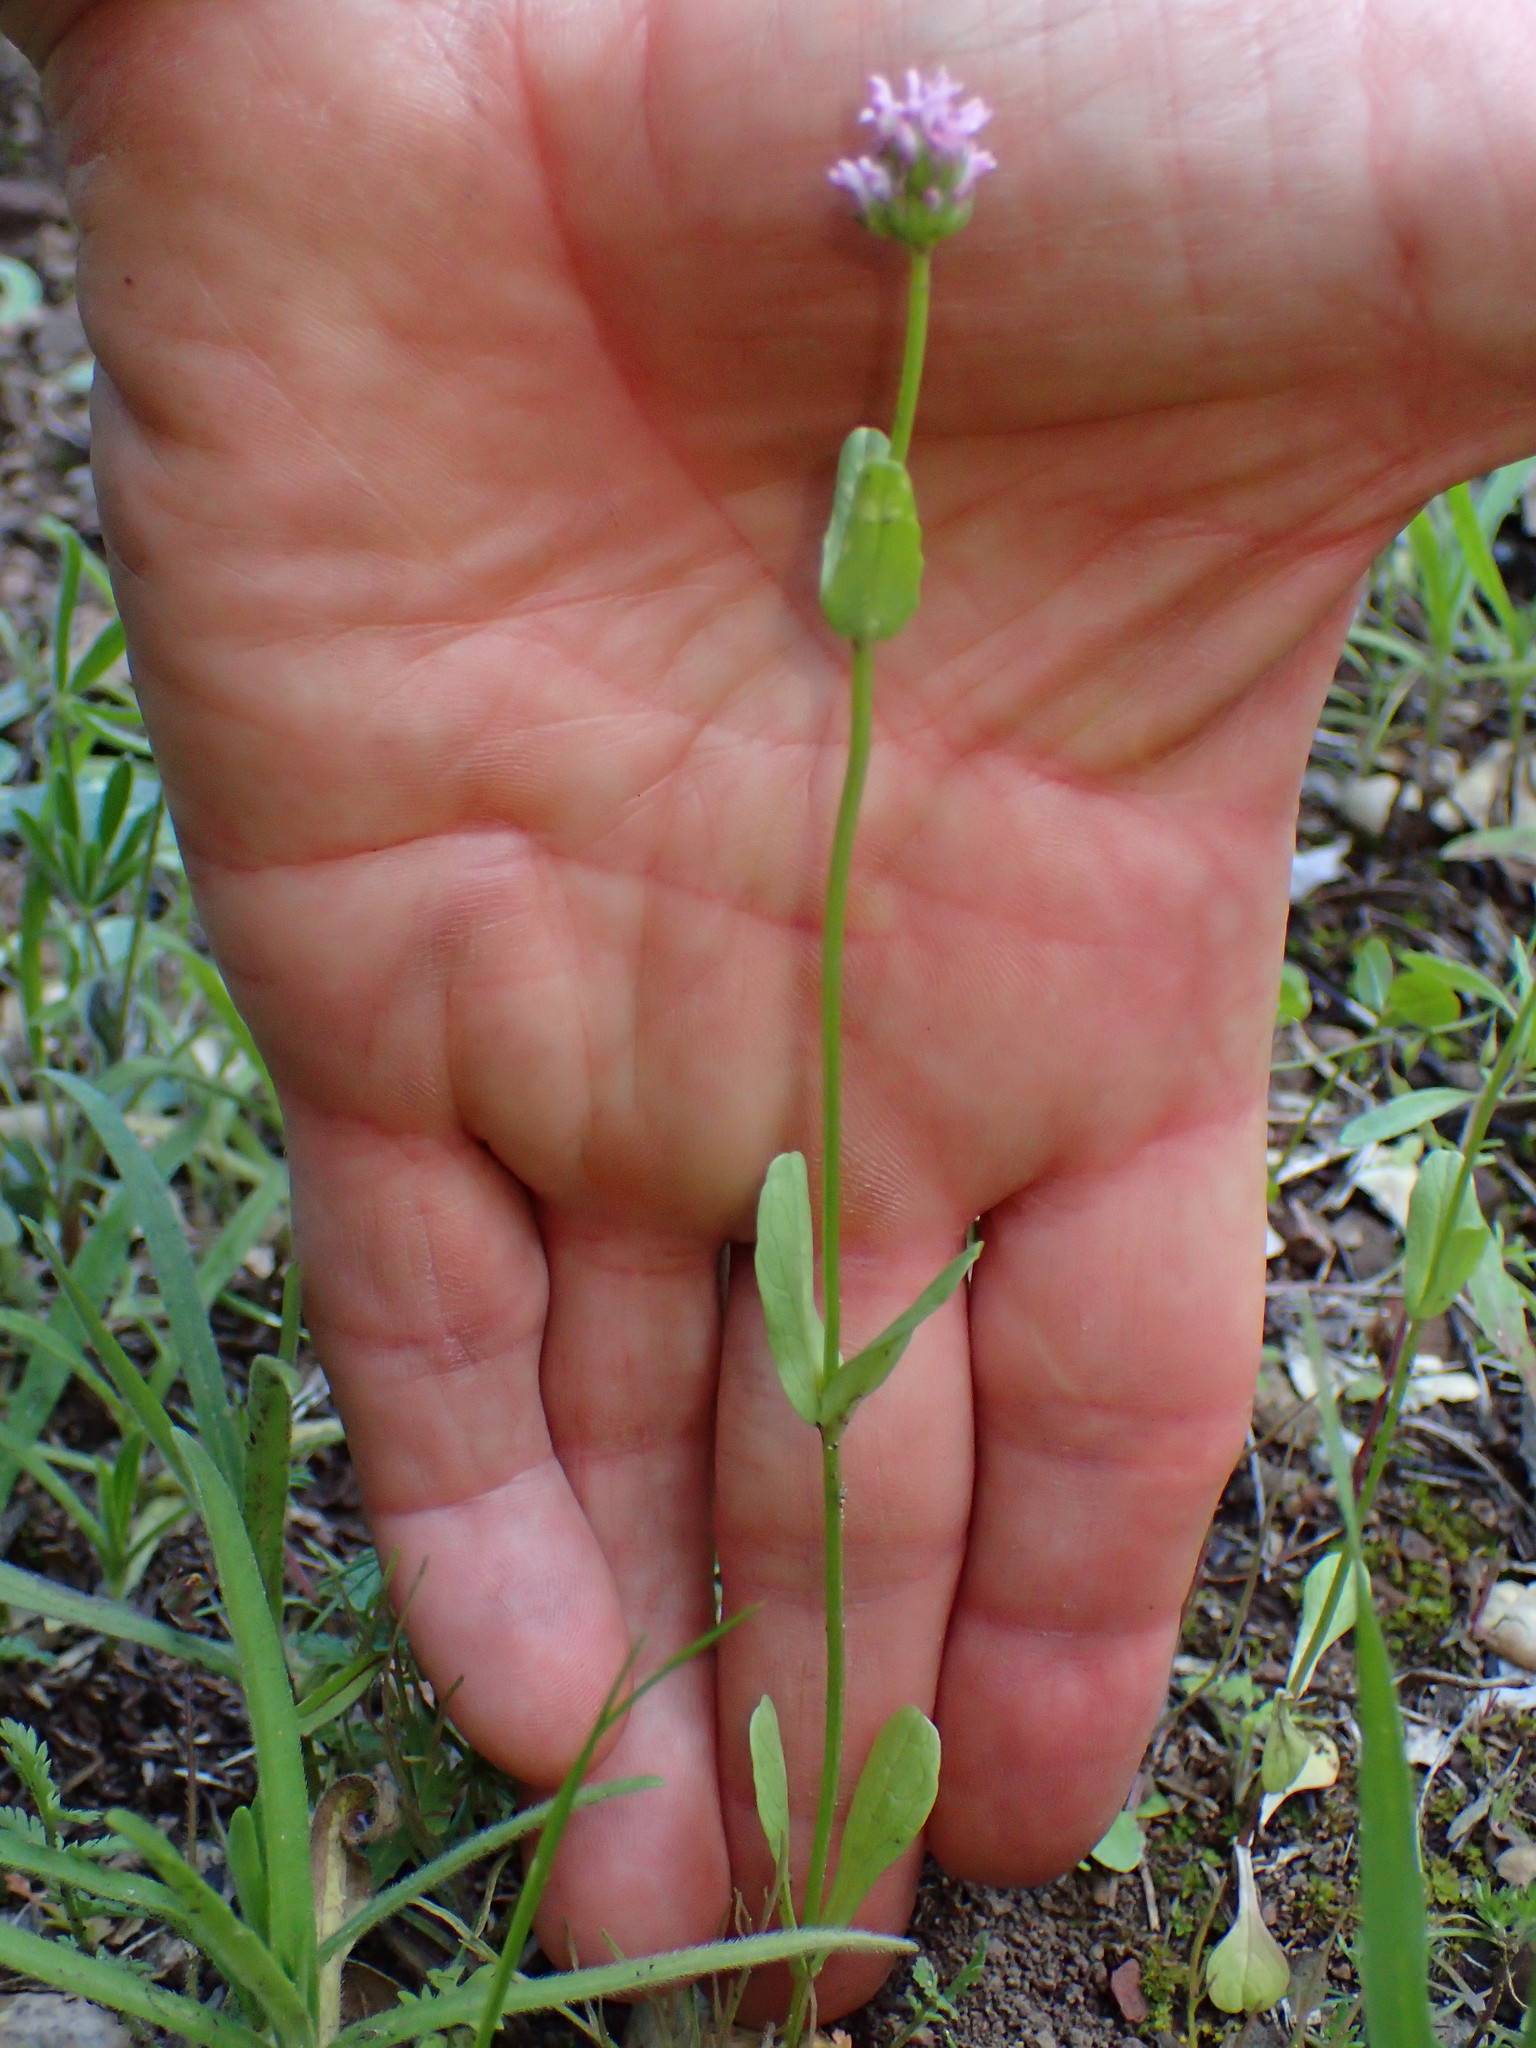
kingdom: Plantae
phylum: Tracheophyta
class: Magnoliopsida
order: Dipsacales
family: Caprifoliaceae
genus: Plectritis
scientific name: Plectritis ciliosa
